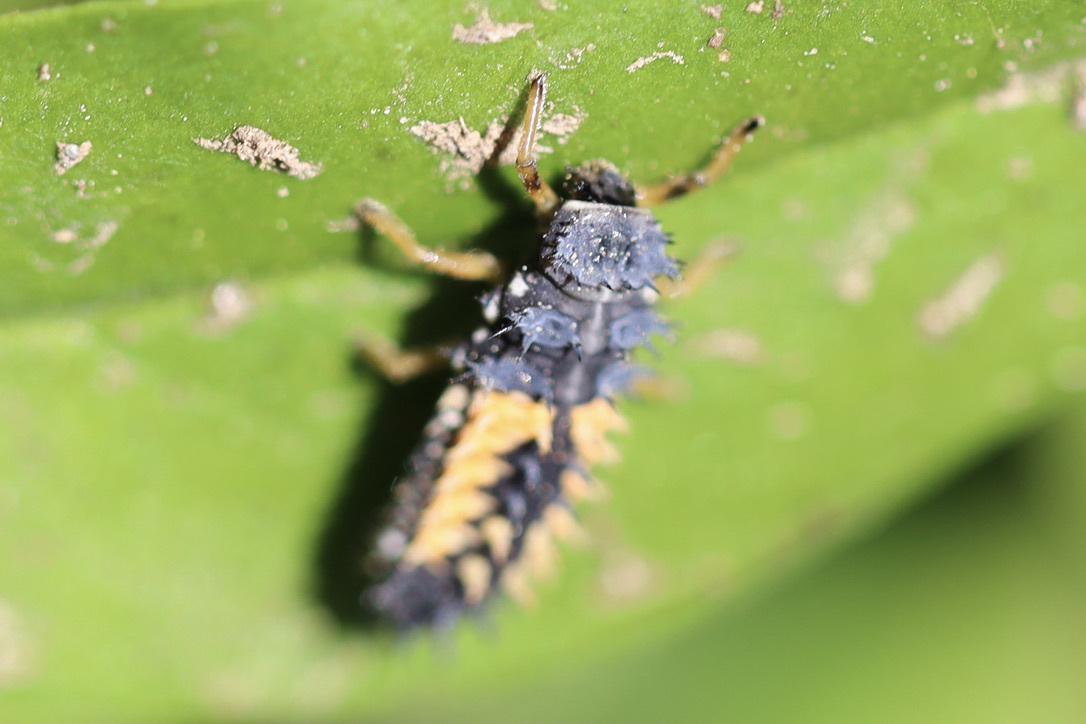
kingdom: Animalia
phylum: Arthropoda
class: Insecta
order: Coleoptera
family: Coccinellidae
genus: Harmonia
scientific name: Harmonia axyridis
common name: Harlequin ladybird
